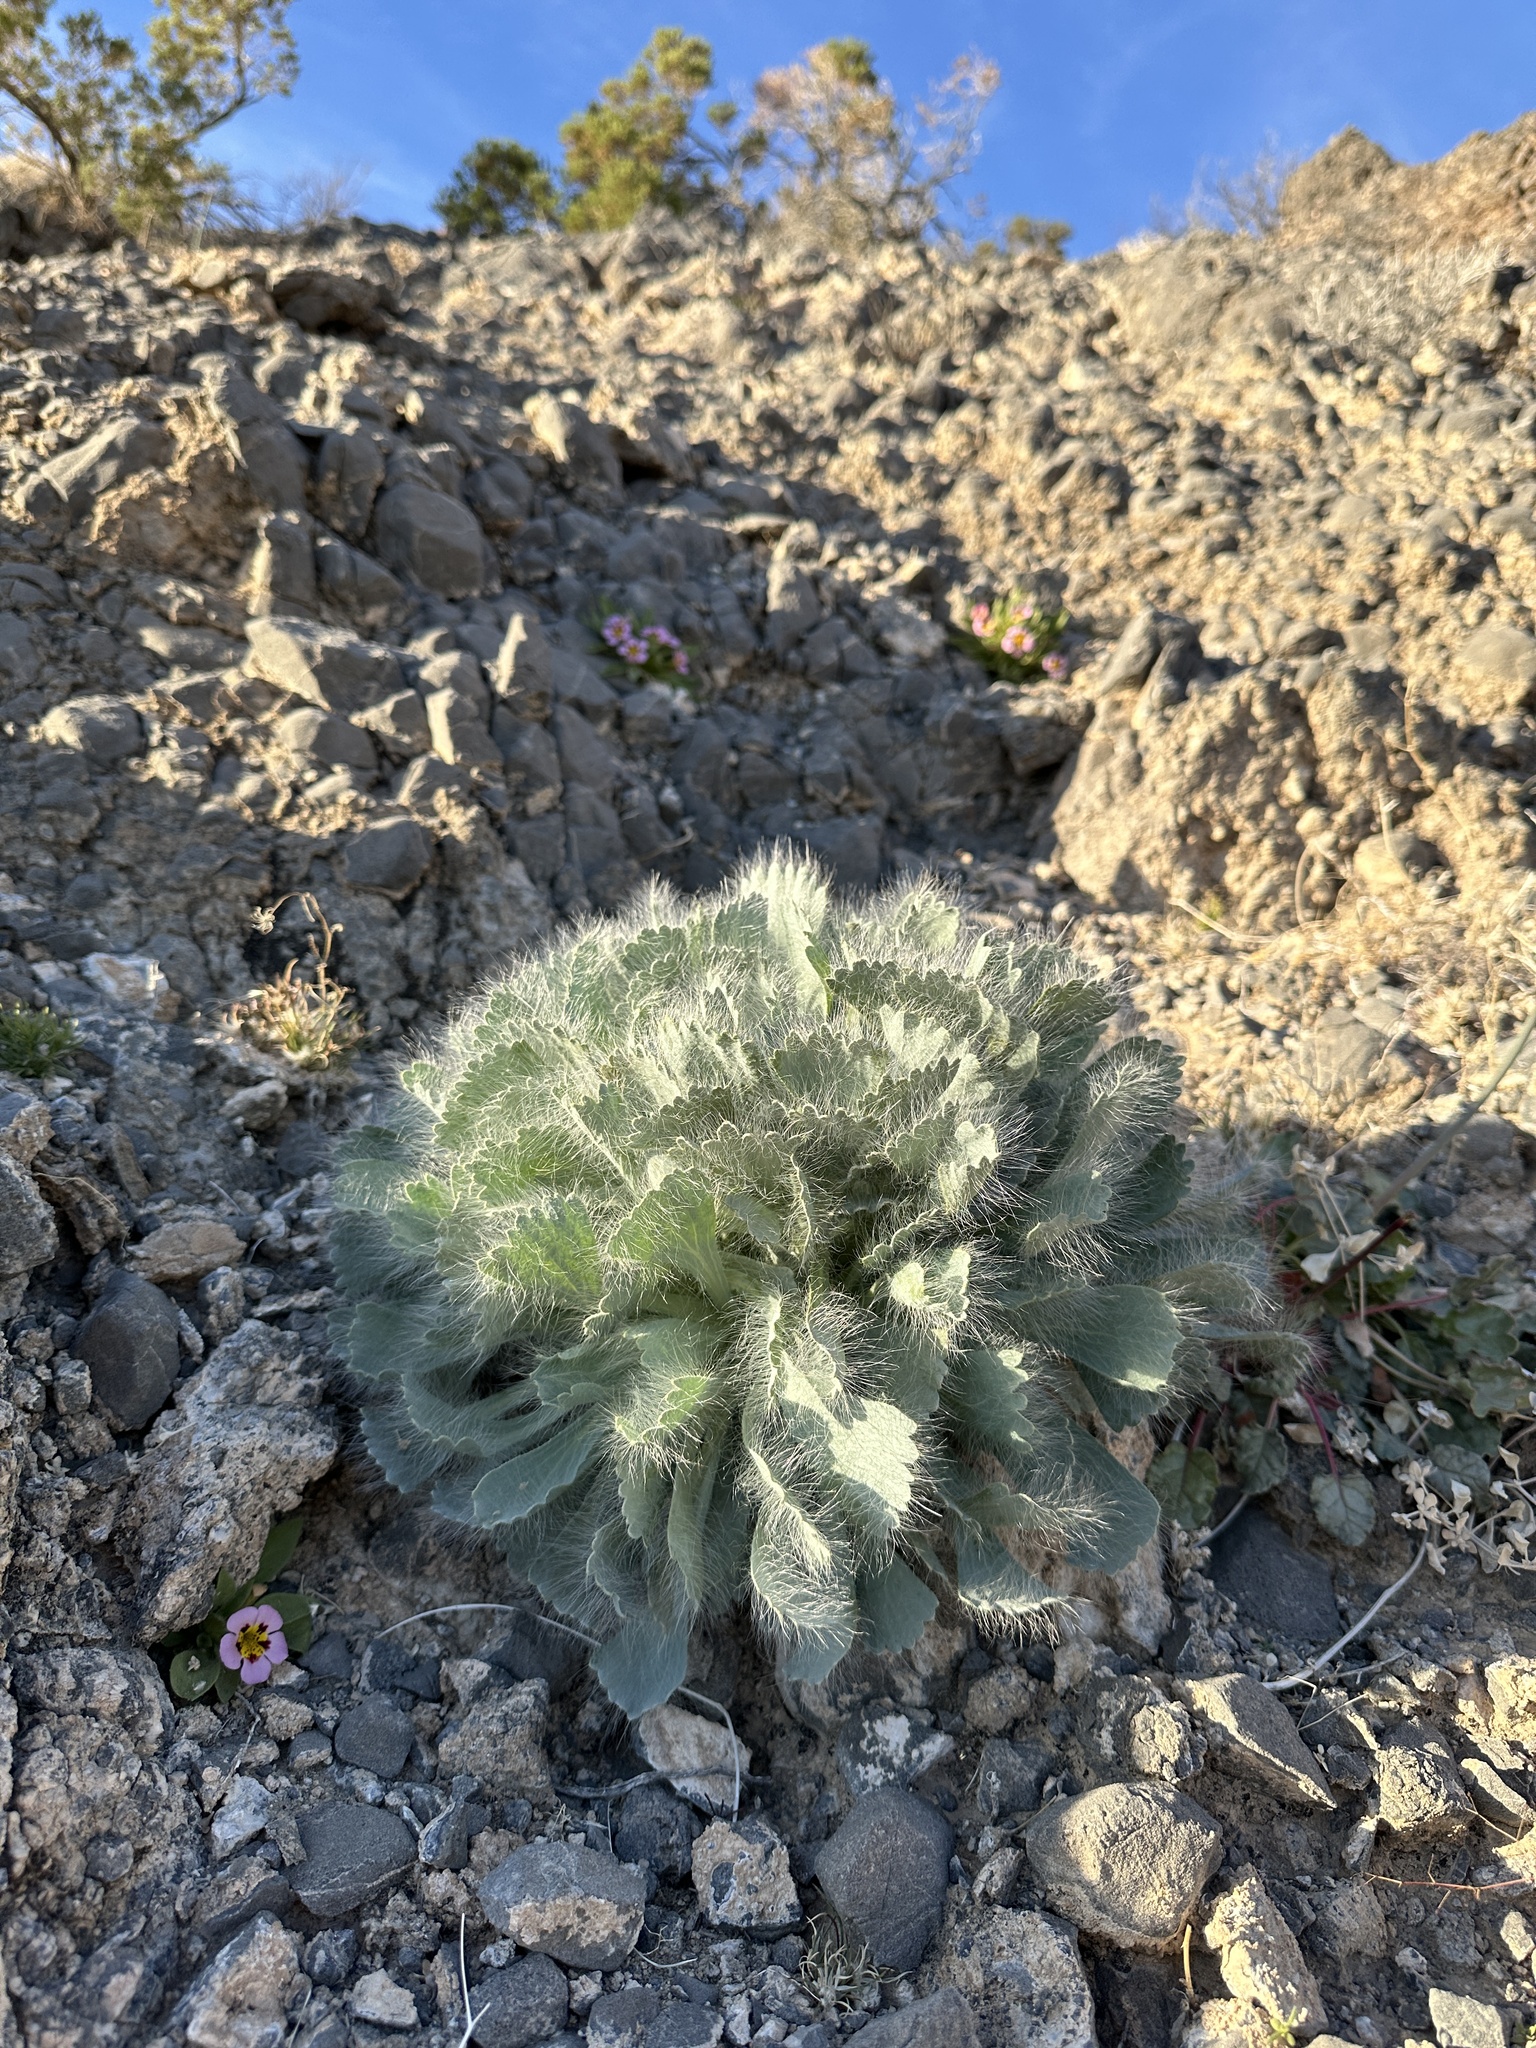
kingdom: Plantae
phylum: Tracheophyta
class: Magnoliopsida
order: Ranunculales
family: Papaveraceae
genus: Arctomecon
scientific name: Arctomecon merriamii
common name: White bear-poppy
